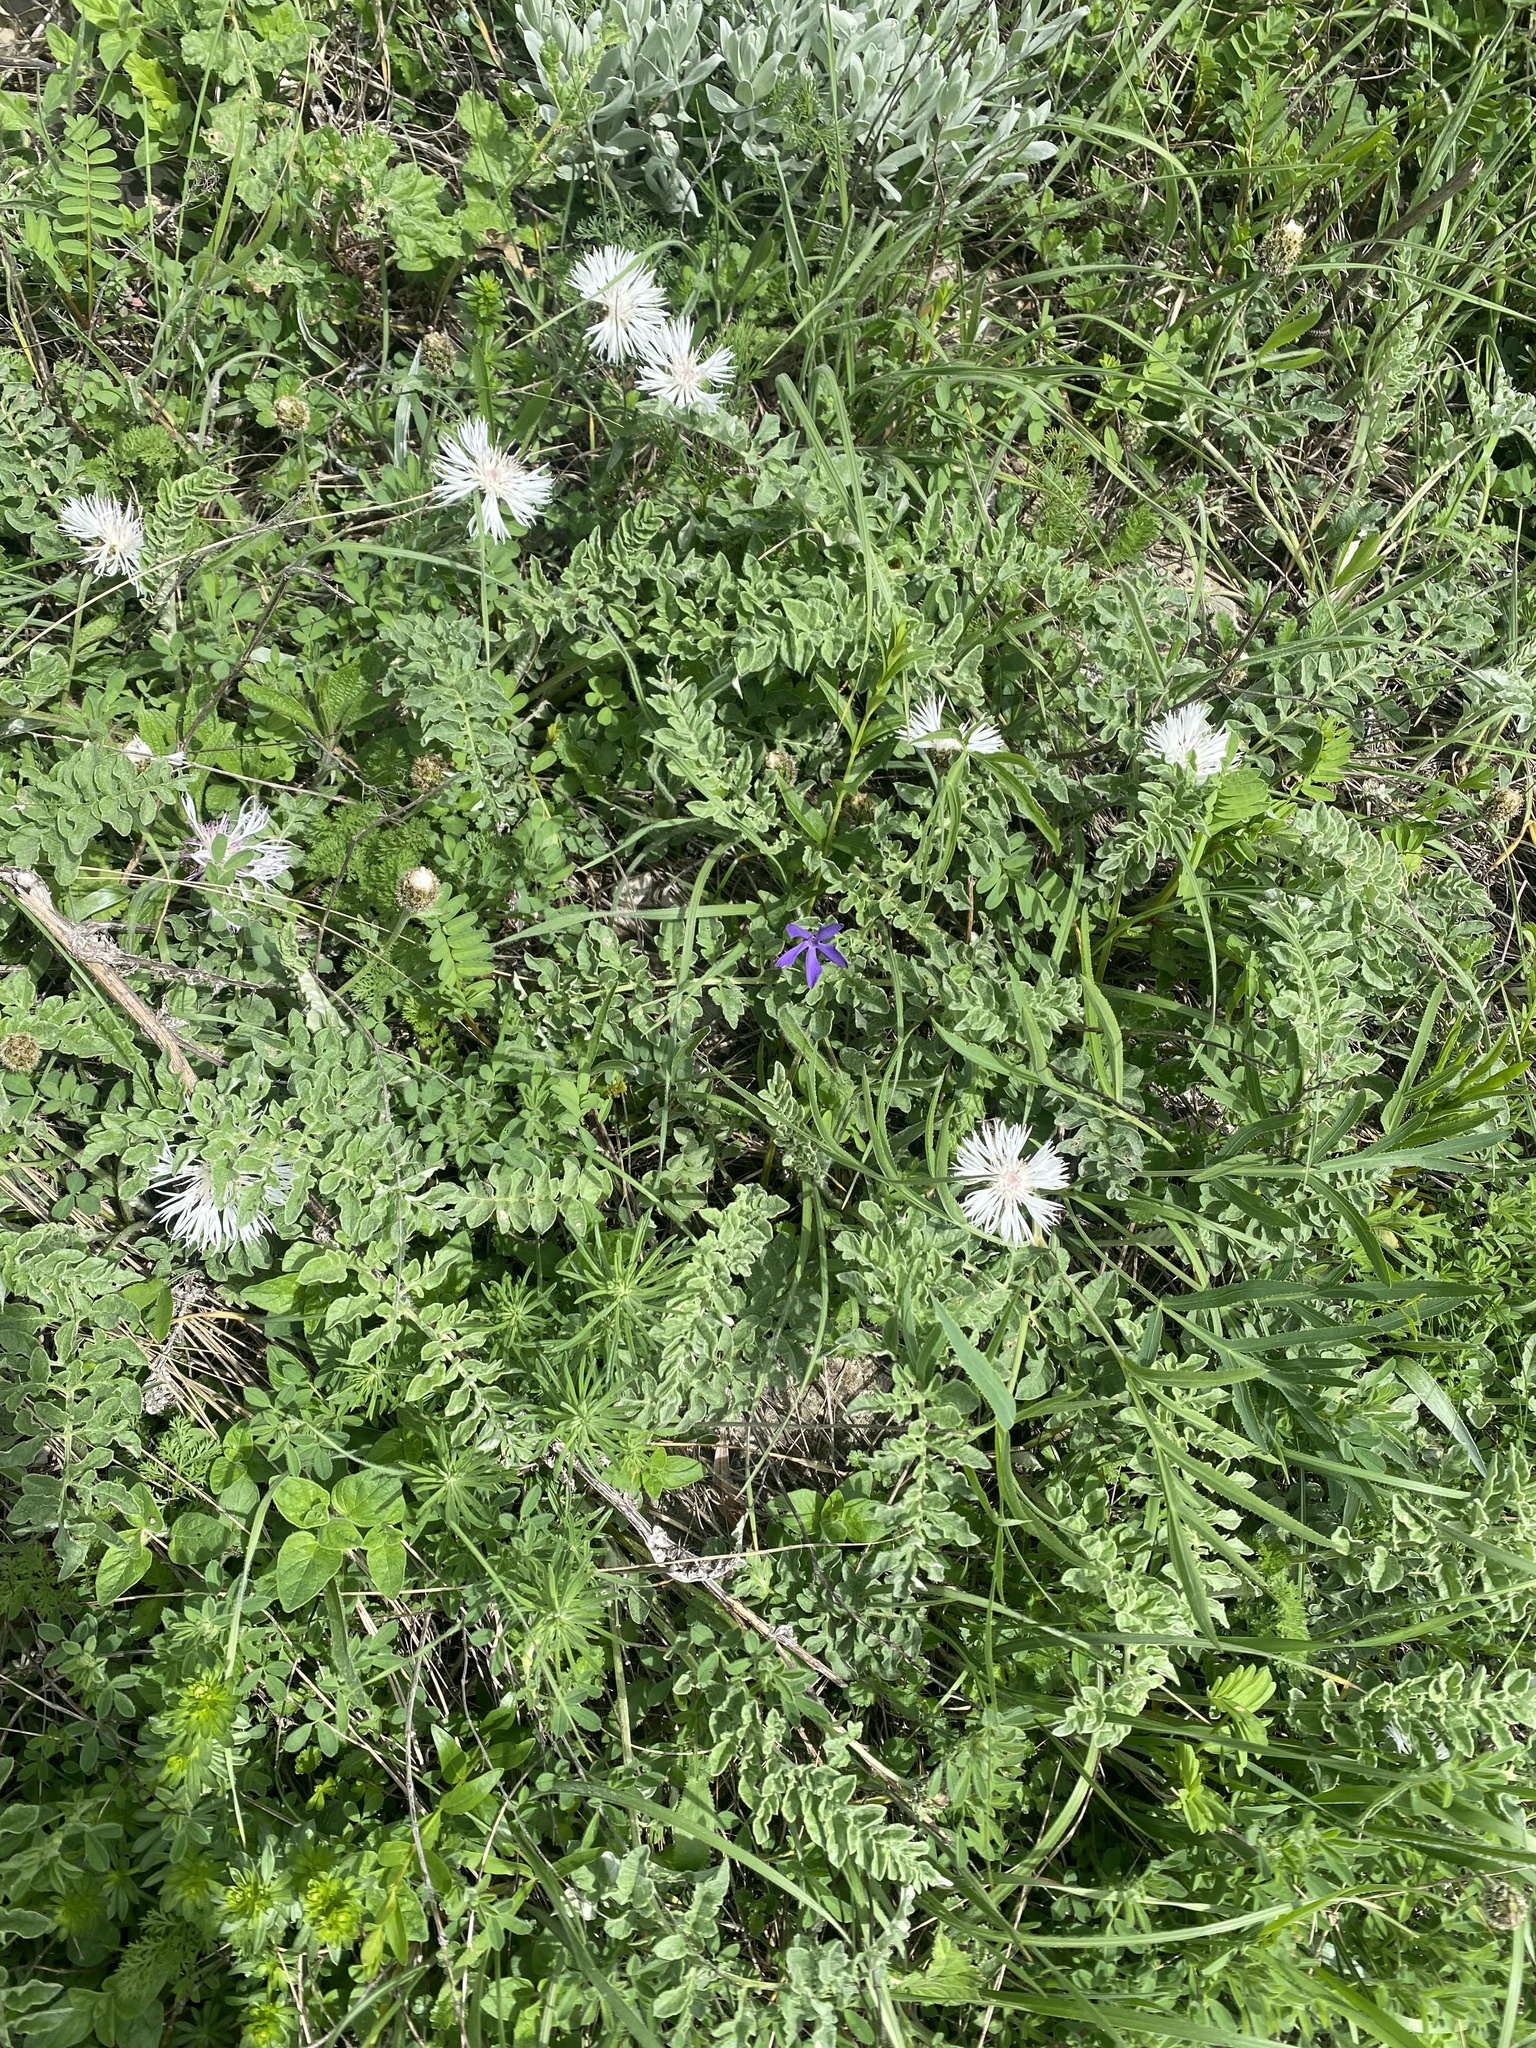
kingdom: Plantae
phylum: Tracheophyta
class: Magnoliopsida
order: Asterales
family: Asteraceae
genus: Psephellus
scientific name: Psephellus declinatus
